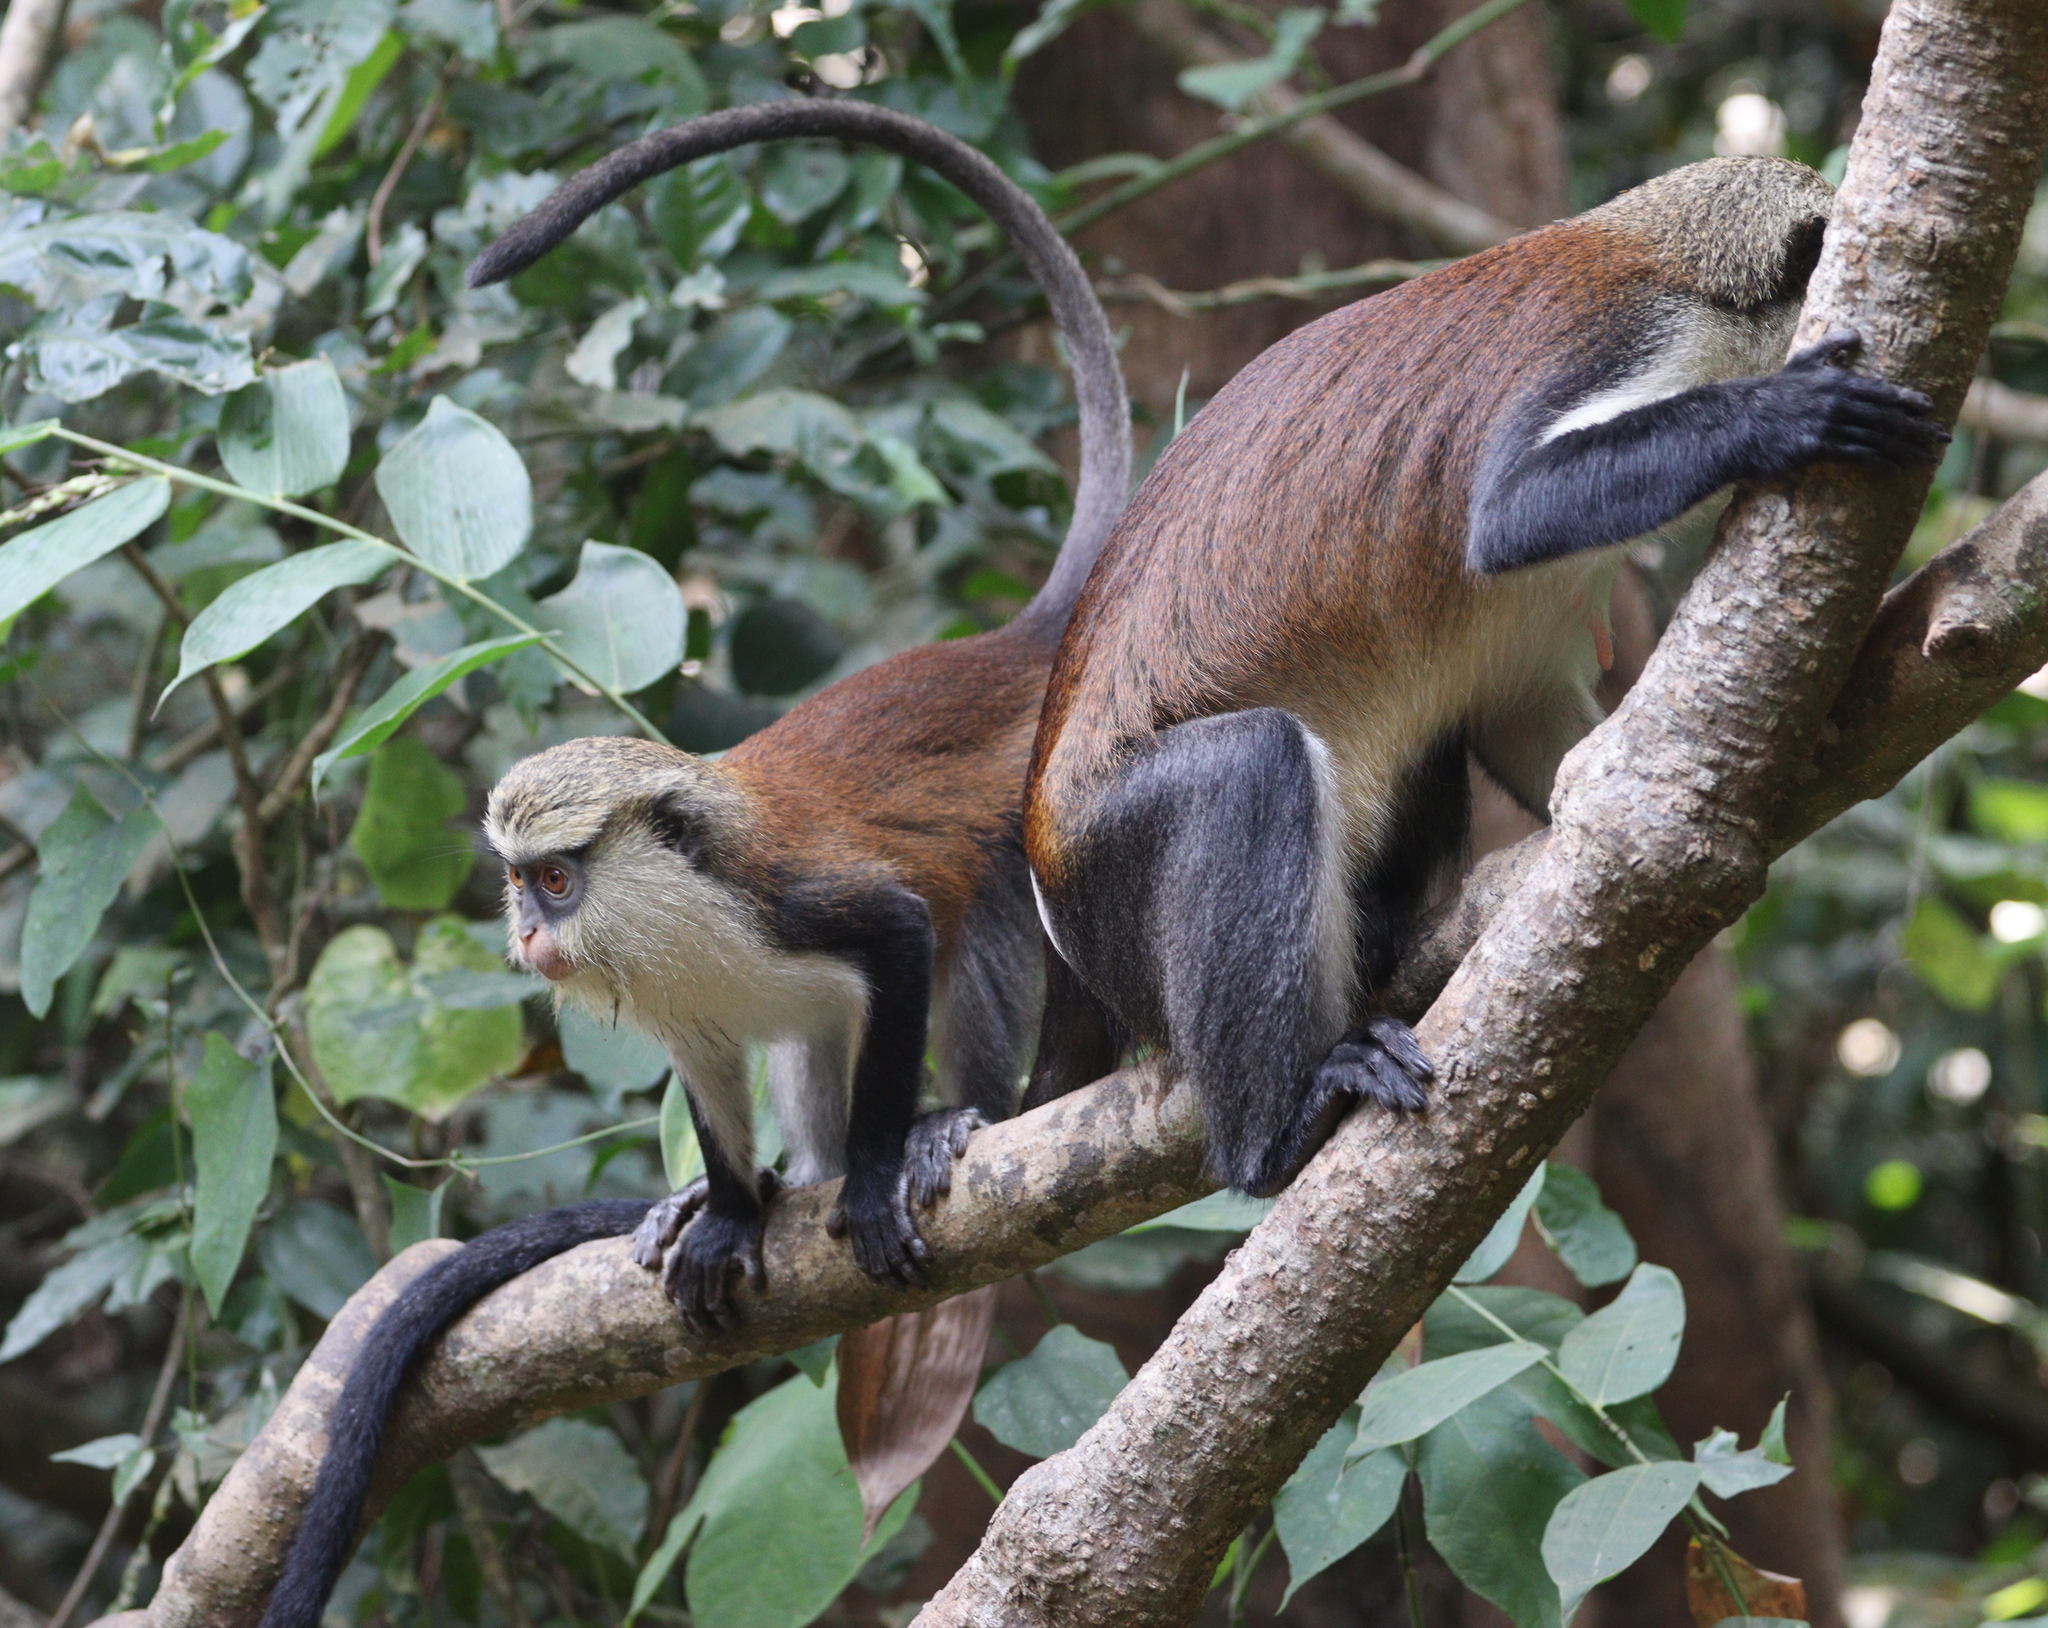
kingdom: Animalia
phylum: Chordata
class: Mammalia
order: Primates
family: Cercopithecidae
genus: Cercopithecus
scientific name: Cercopithecus mona
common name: Mona monkey
